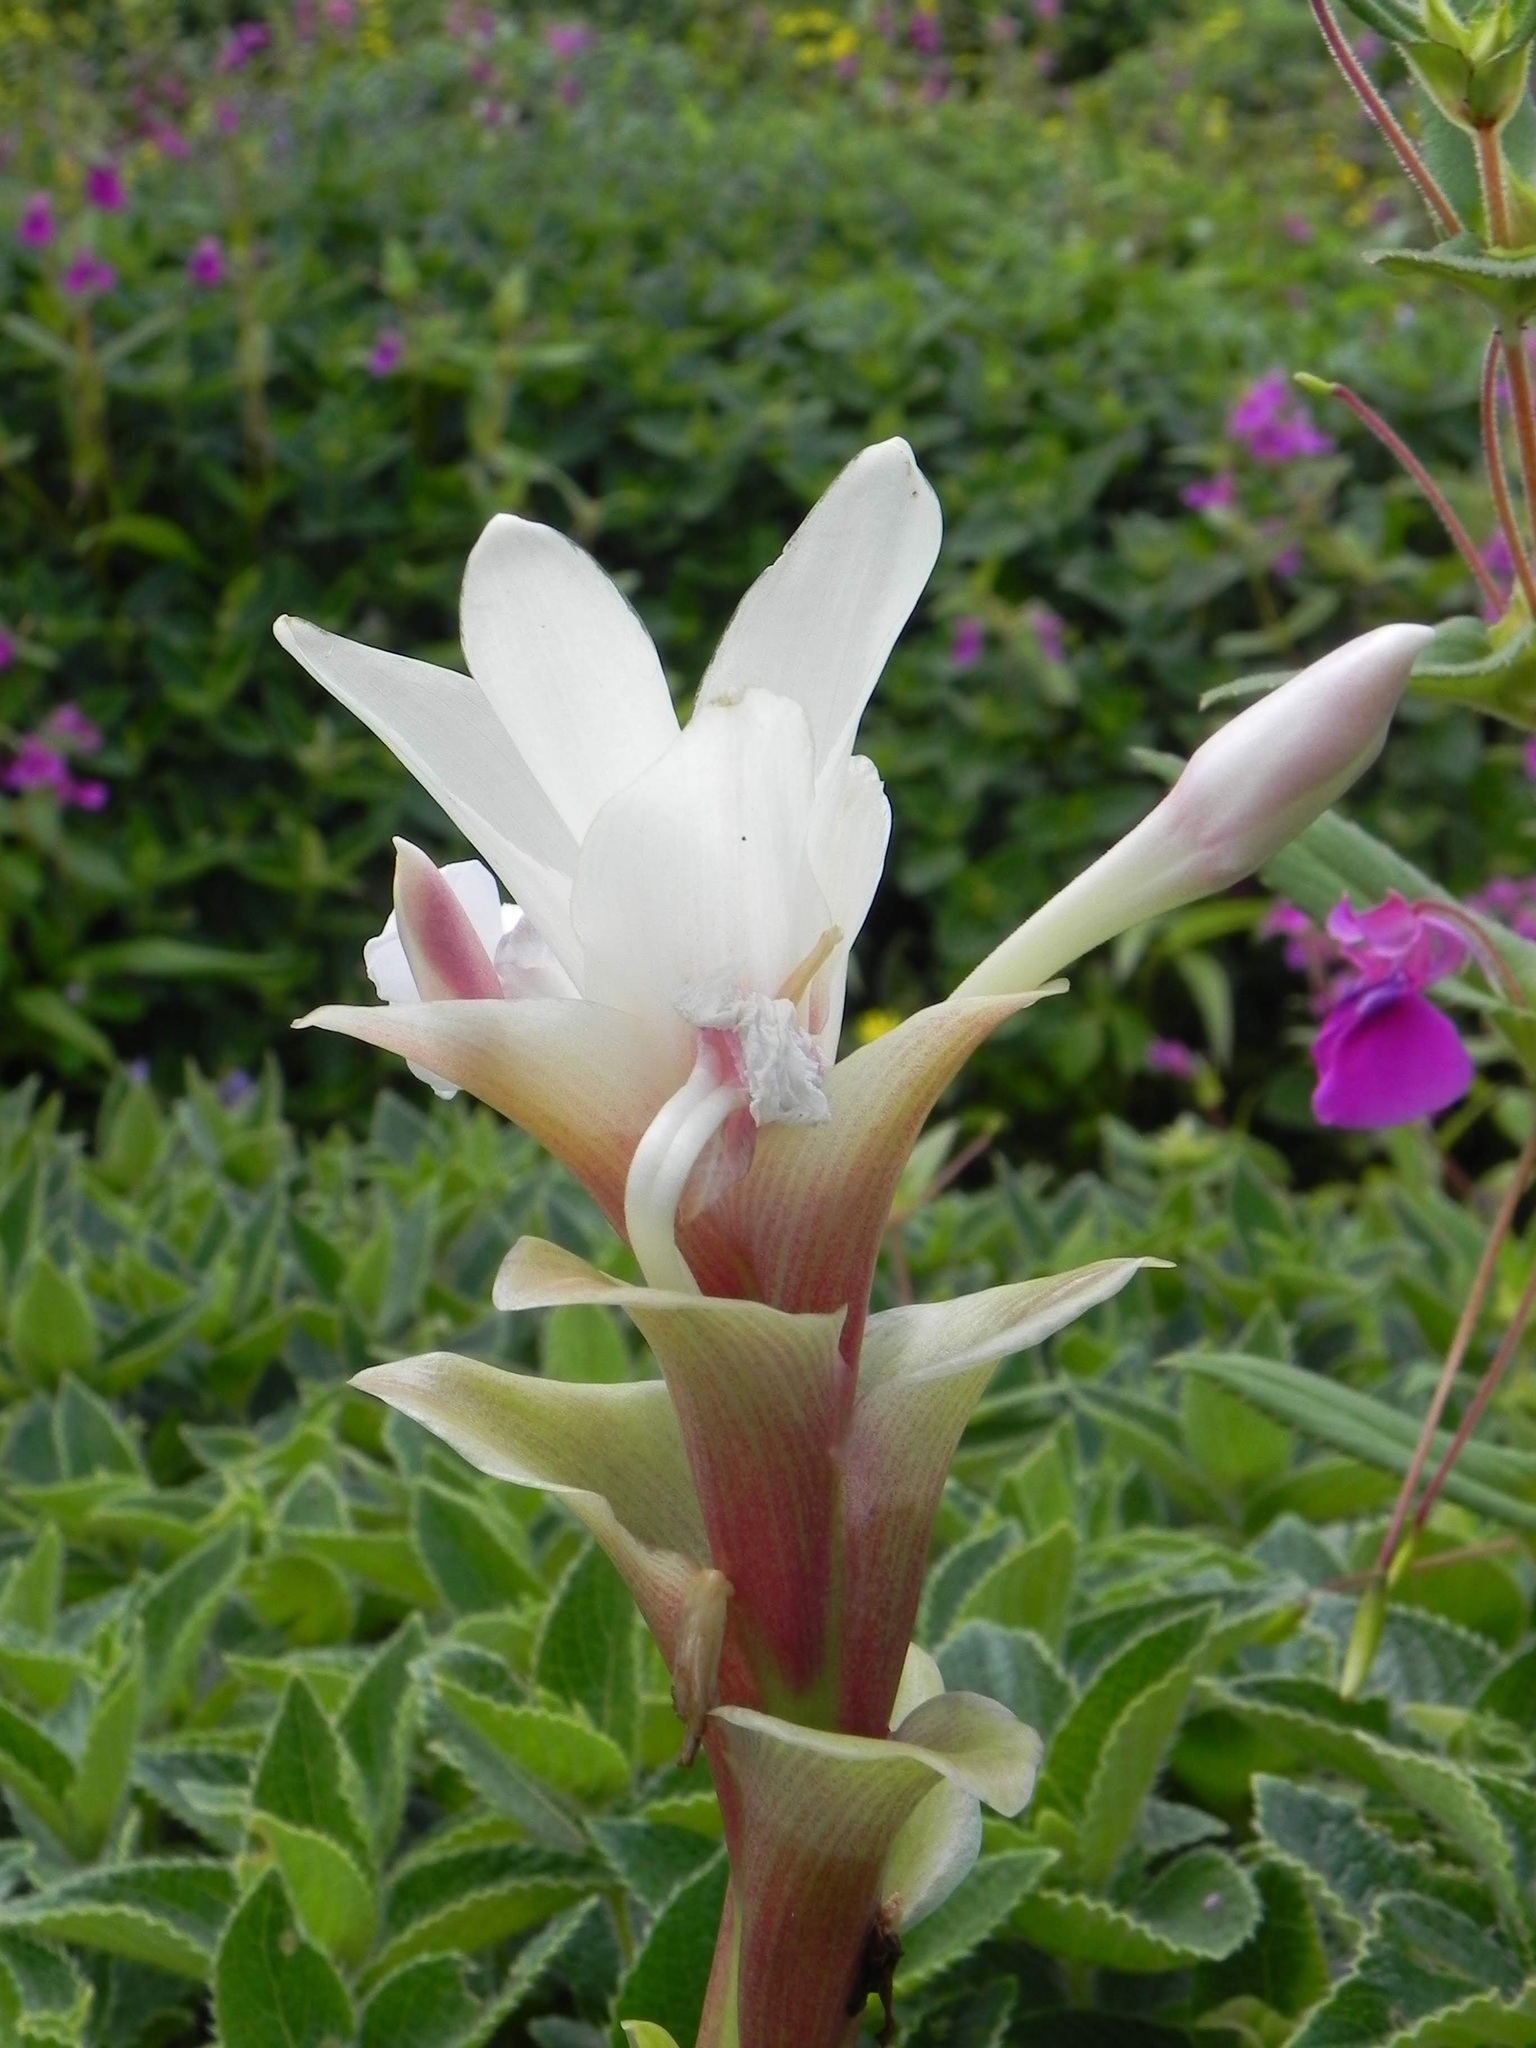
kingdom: Plantae
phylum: Tracheophyta
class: Liliopsida
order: Zingiberales
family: Zingiberaceae
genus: Curcuma
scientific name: Curcuma caulina
